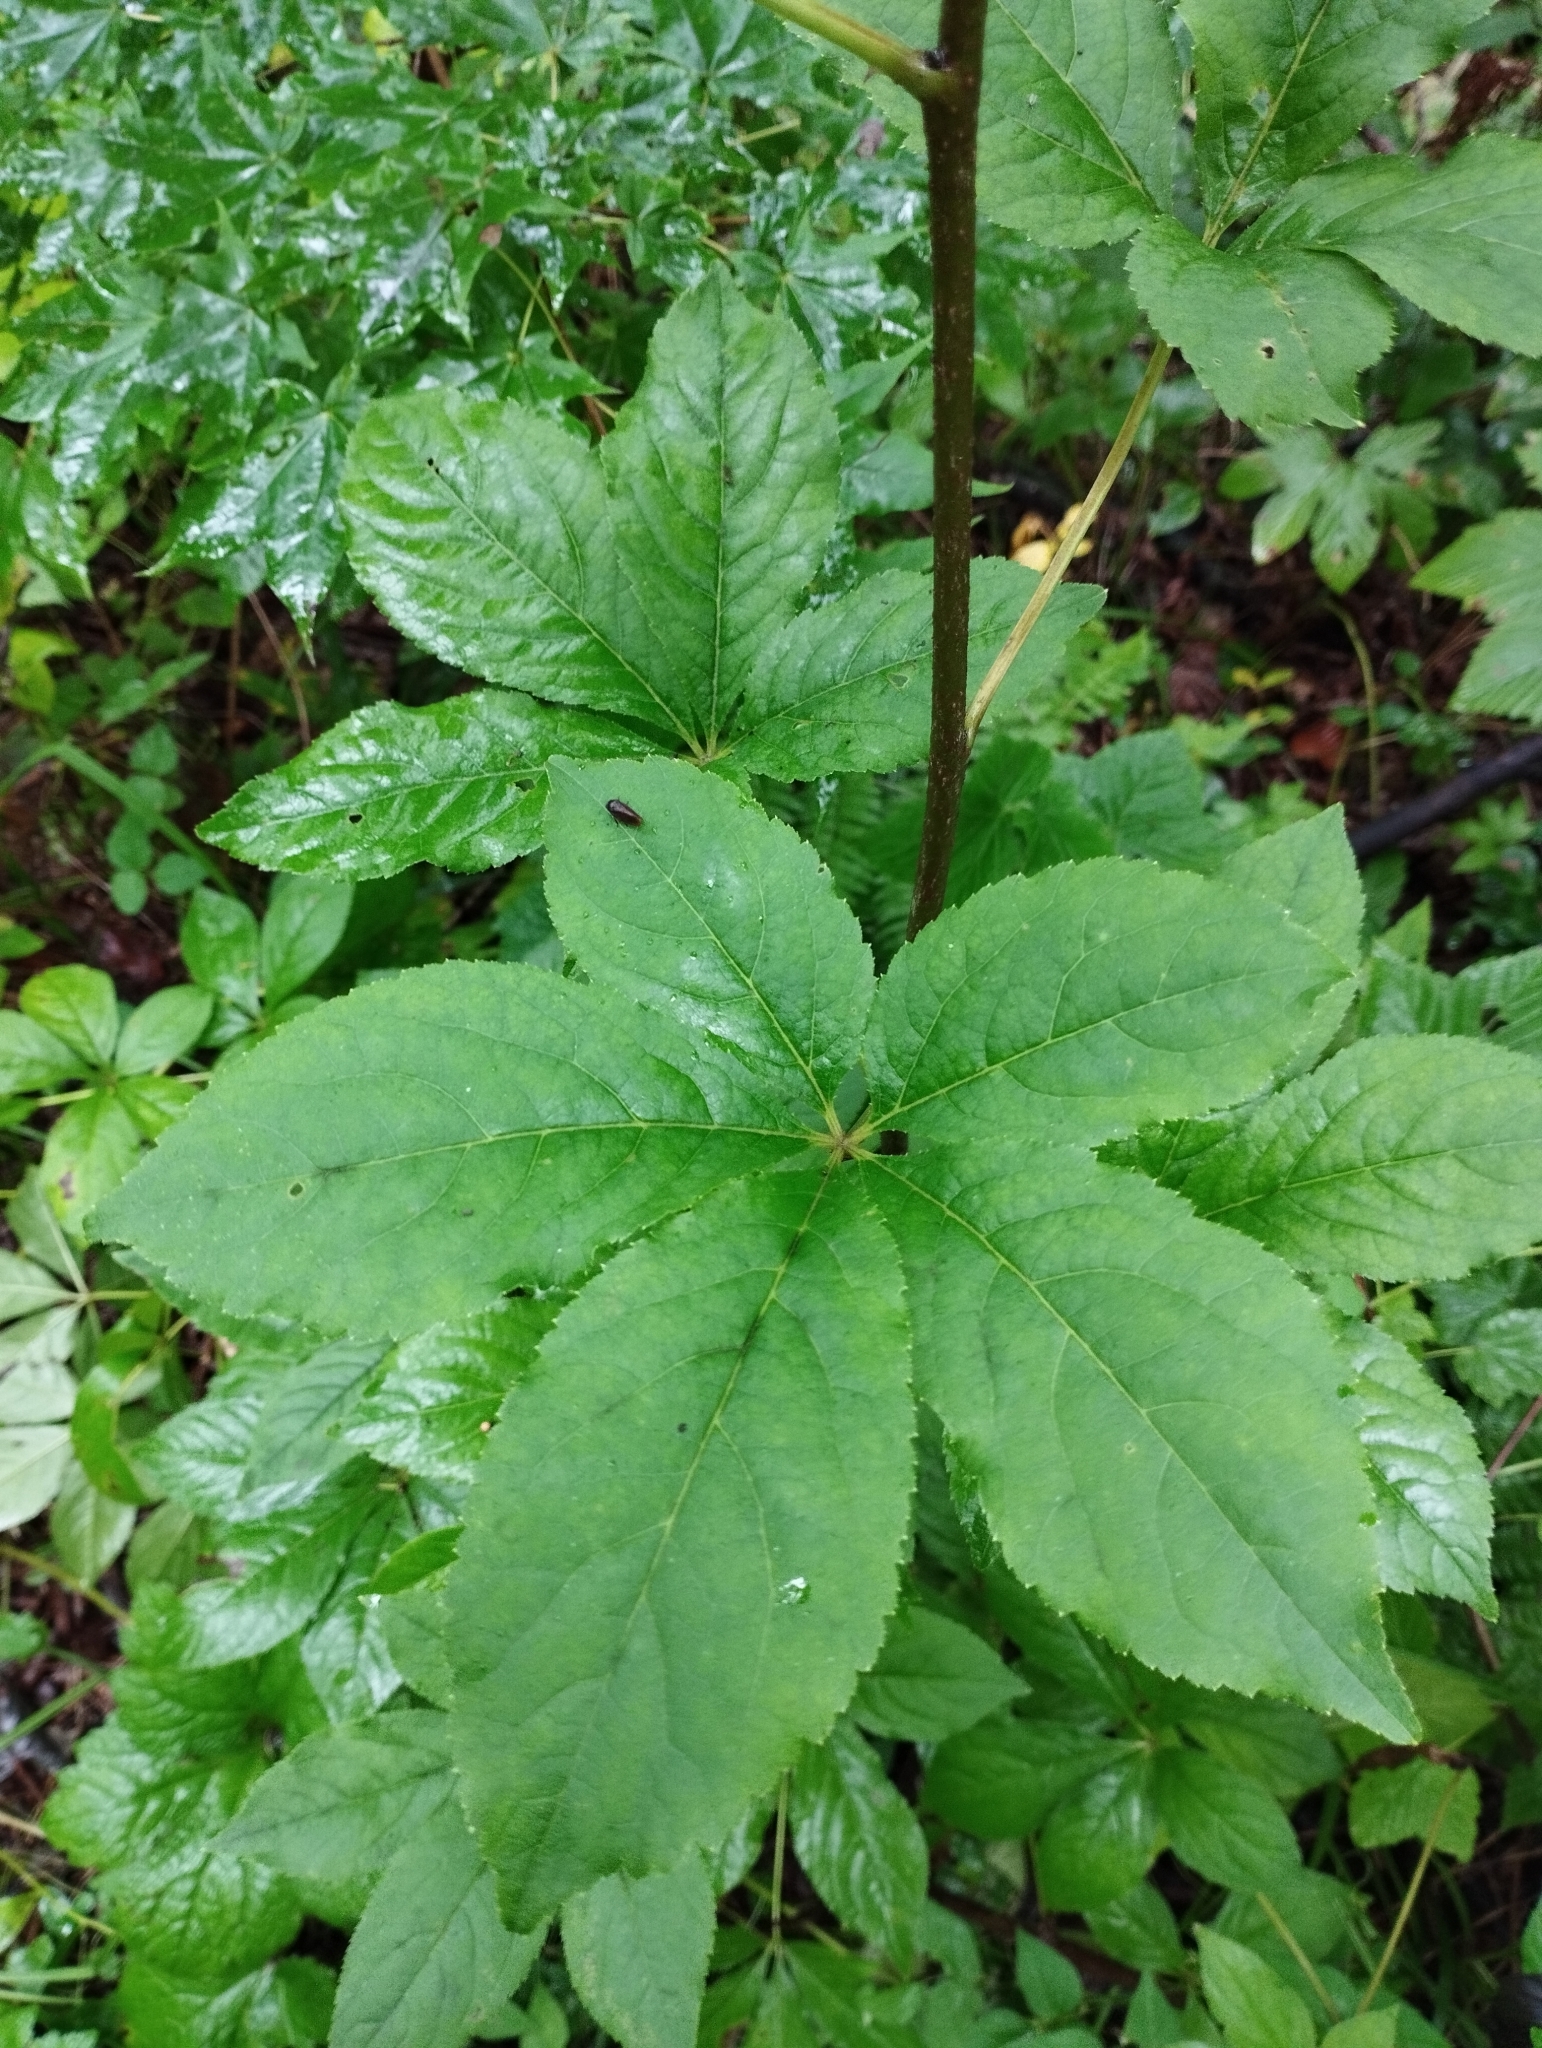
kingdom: Plantae
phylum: Tracheophyta
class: Magnoliopsida
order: Apiales
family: Araliaceae
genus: Eleutherococcus
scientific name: Eleutherococcus sessiliflorus
